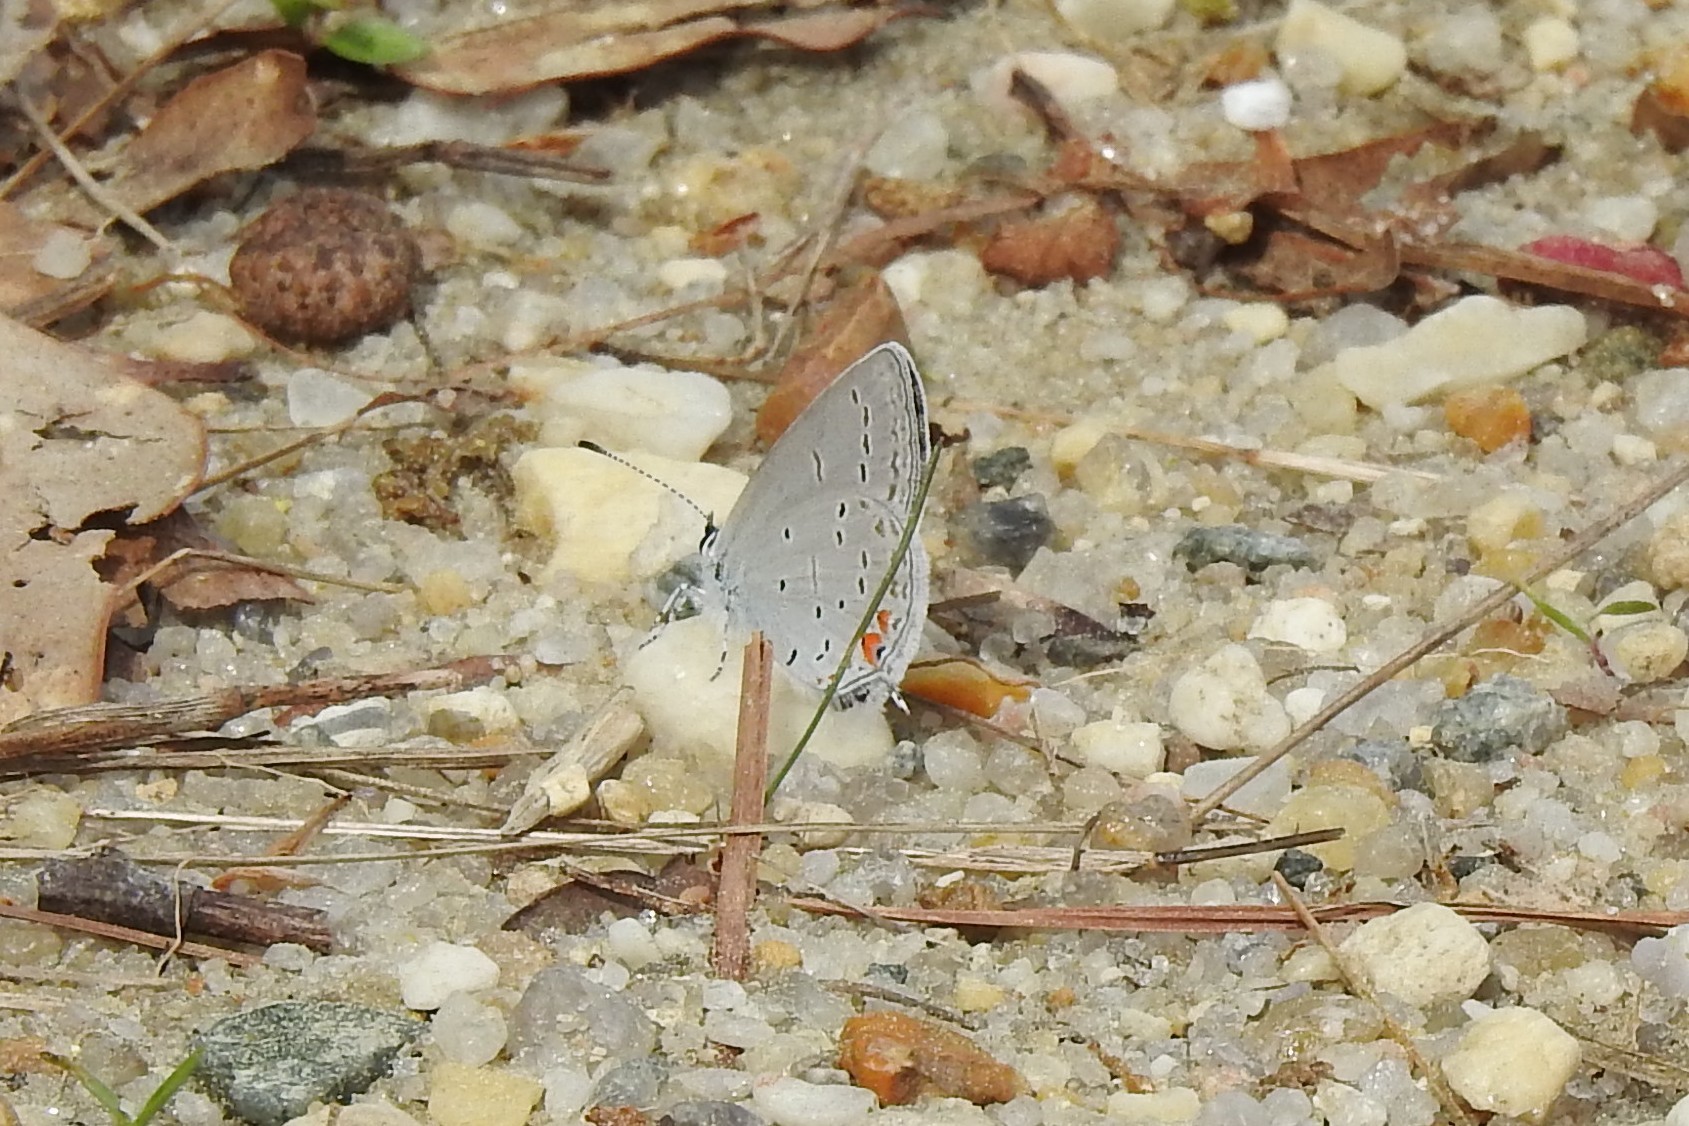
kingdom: Animalia
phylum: Arthropoda
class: Insecta
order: Lepidoptera
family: Lycaenidae
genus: Elkalyce
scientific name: Elkalyce comyntas
